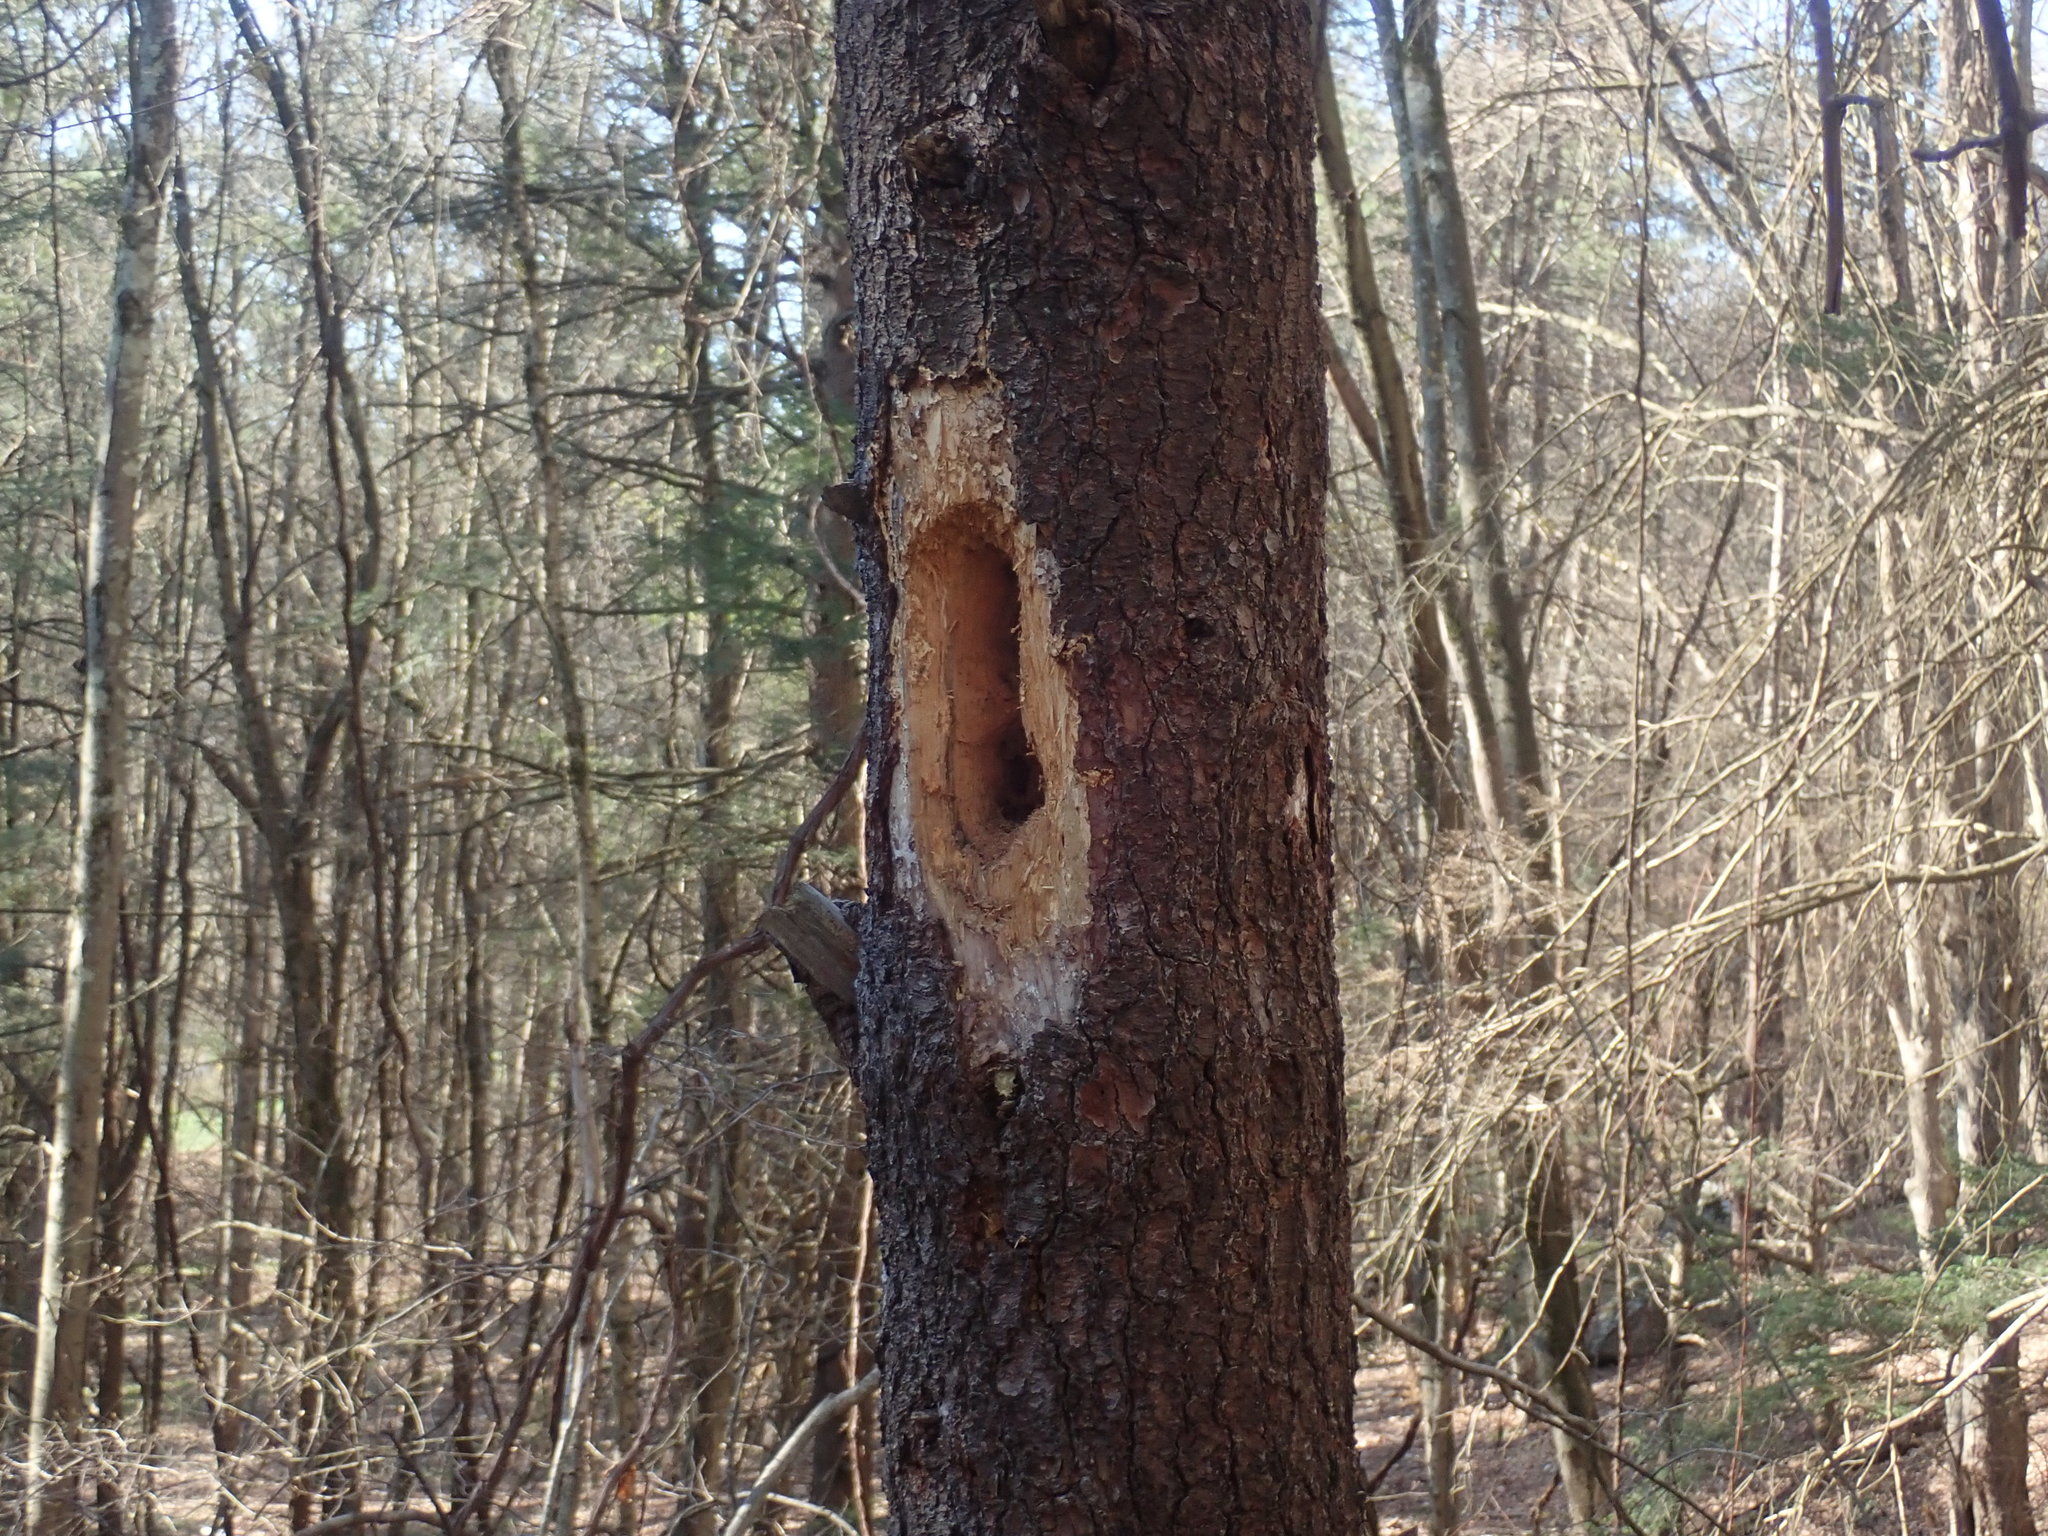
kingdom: Animalia
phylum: Chordata
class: Aves
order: Piciformes
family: Picidae
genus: Dryocopus
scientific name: Dryocopus pileatus
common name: Pileated woodpecker
